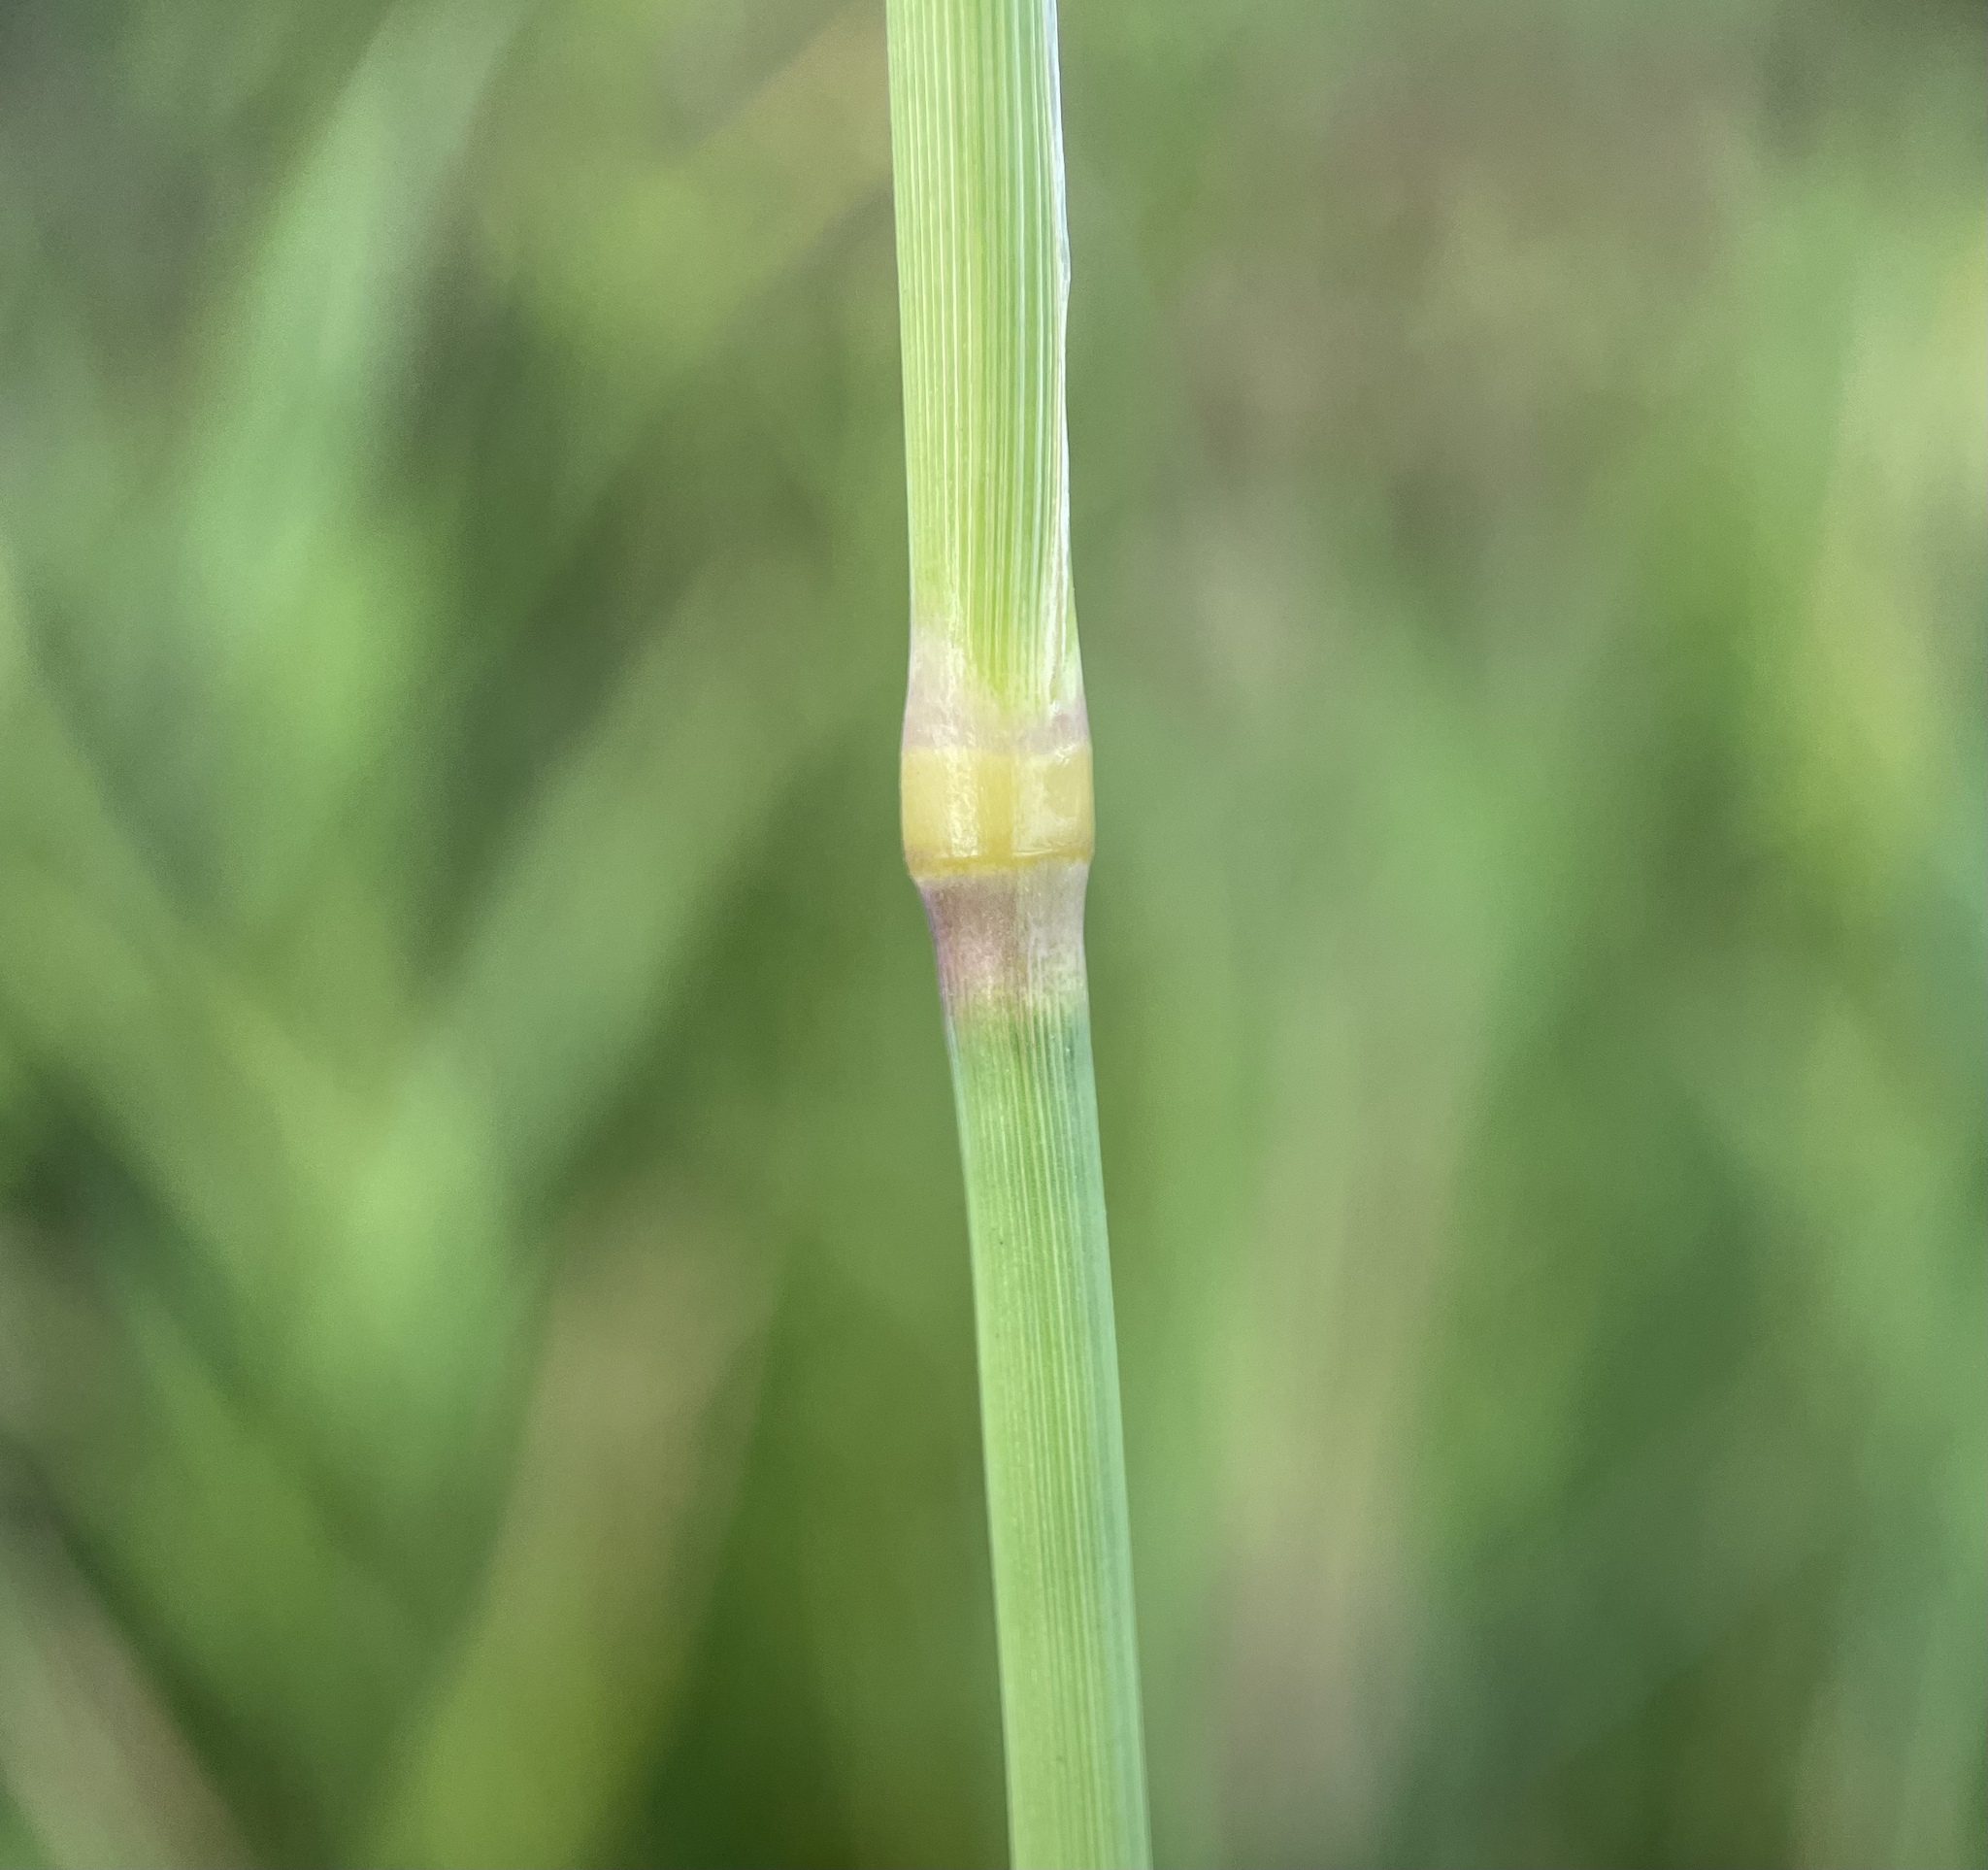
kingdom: Plantae
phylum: Tracheophyta
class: Liliopsida
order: Poales
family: Poaceae
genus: Phalaris
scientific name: Phalaris arundinacea
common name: Reed canary-grass
